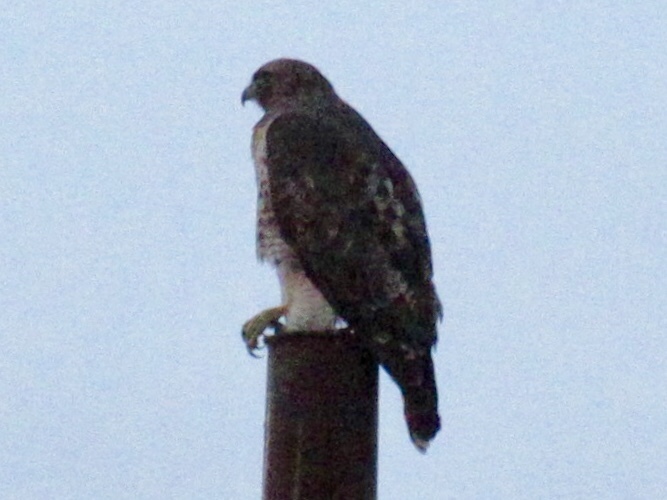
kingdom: Animalia
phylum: Chordata
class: Aves
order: Accipitriformes
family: Accipitridae
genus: Buteo
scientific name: Buteo jamaicensis
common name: Red-tailed hawk
